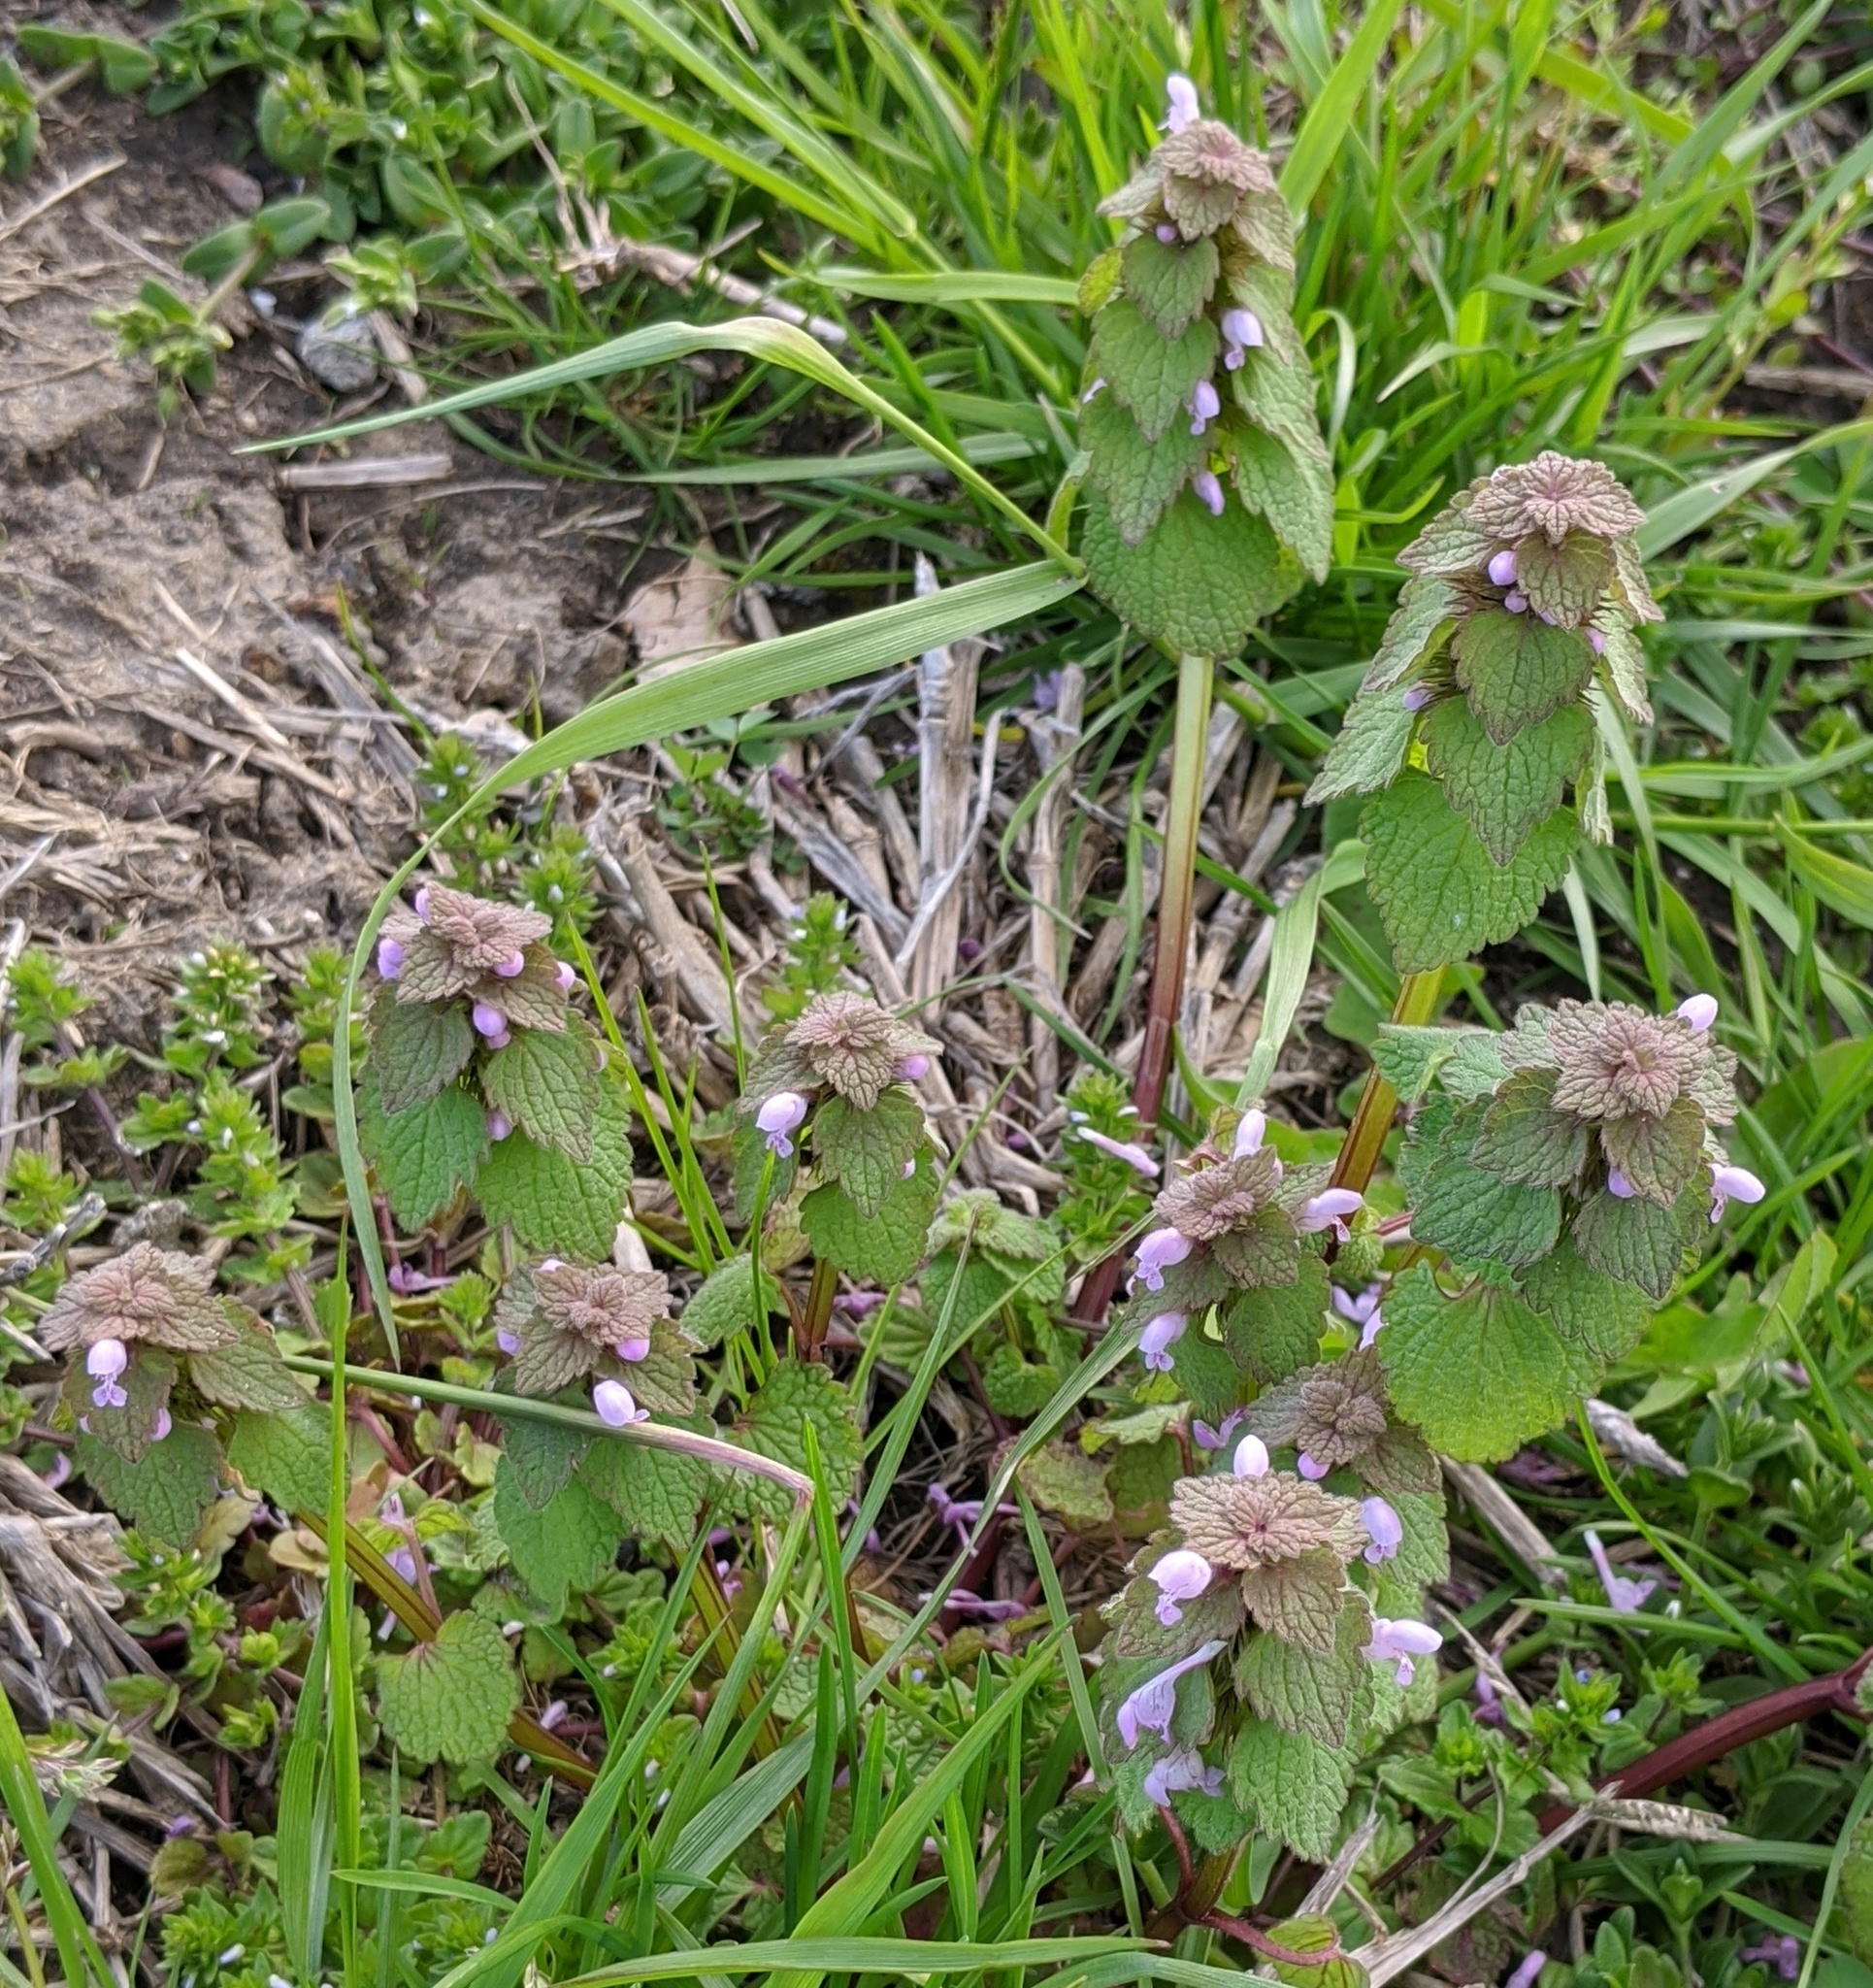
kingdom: Plantae
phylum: Tracheophyta
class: Magnoliopsida
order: Lamiales
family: Lamiaceae
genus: Lamium
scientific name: Lamium purpureum
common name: Red dead-nettle
